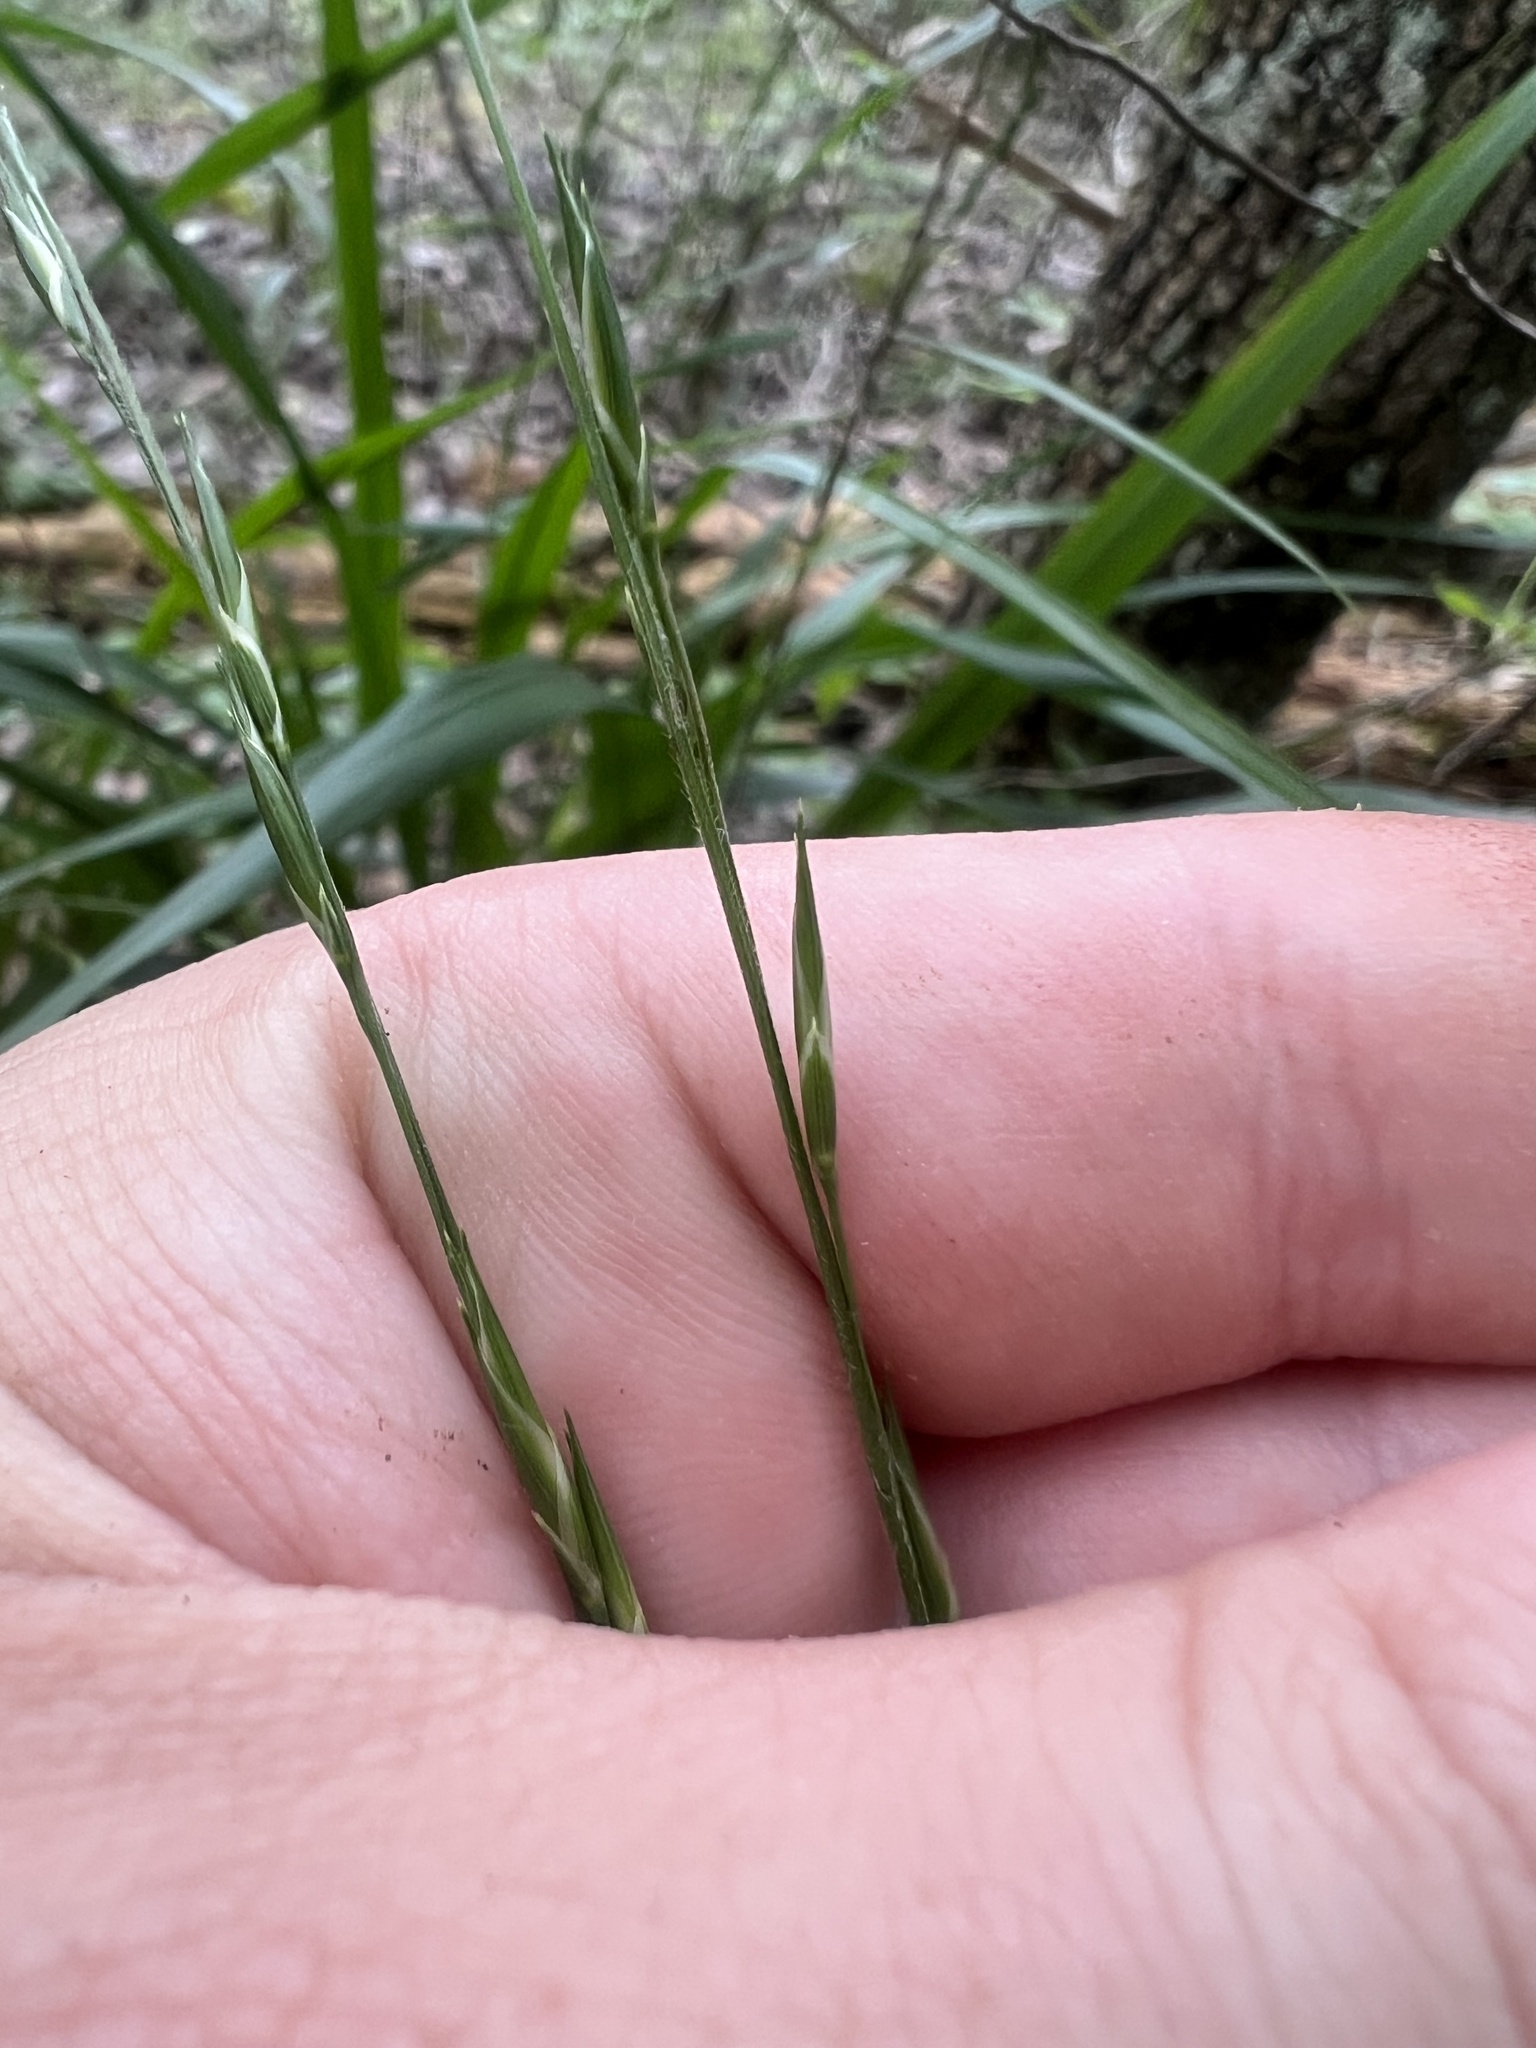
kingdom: Plantae
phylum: Tracheophyta
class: Liliopsida
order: Poales
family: Poaceae
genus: Diarrhena
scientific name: Diarrhena americana
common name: American beakgrain
